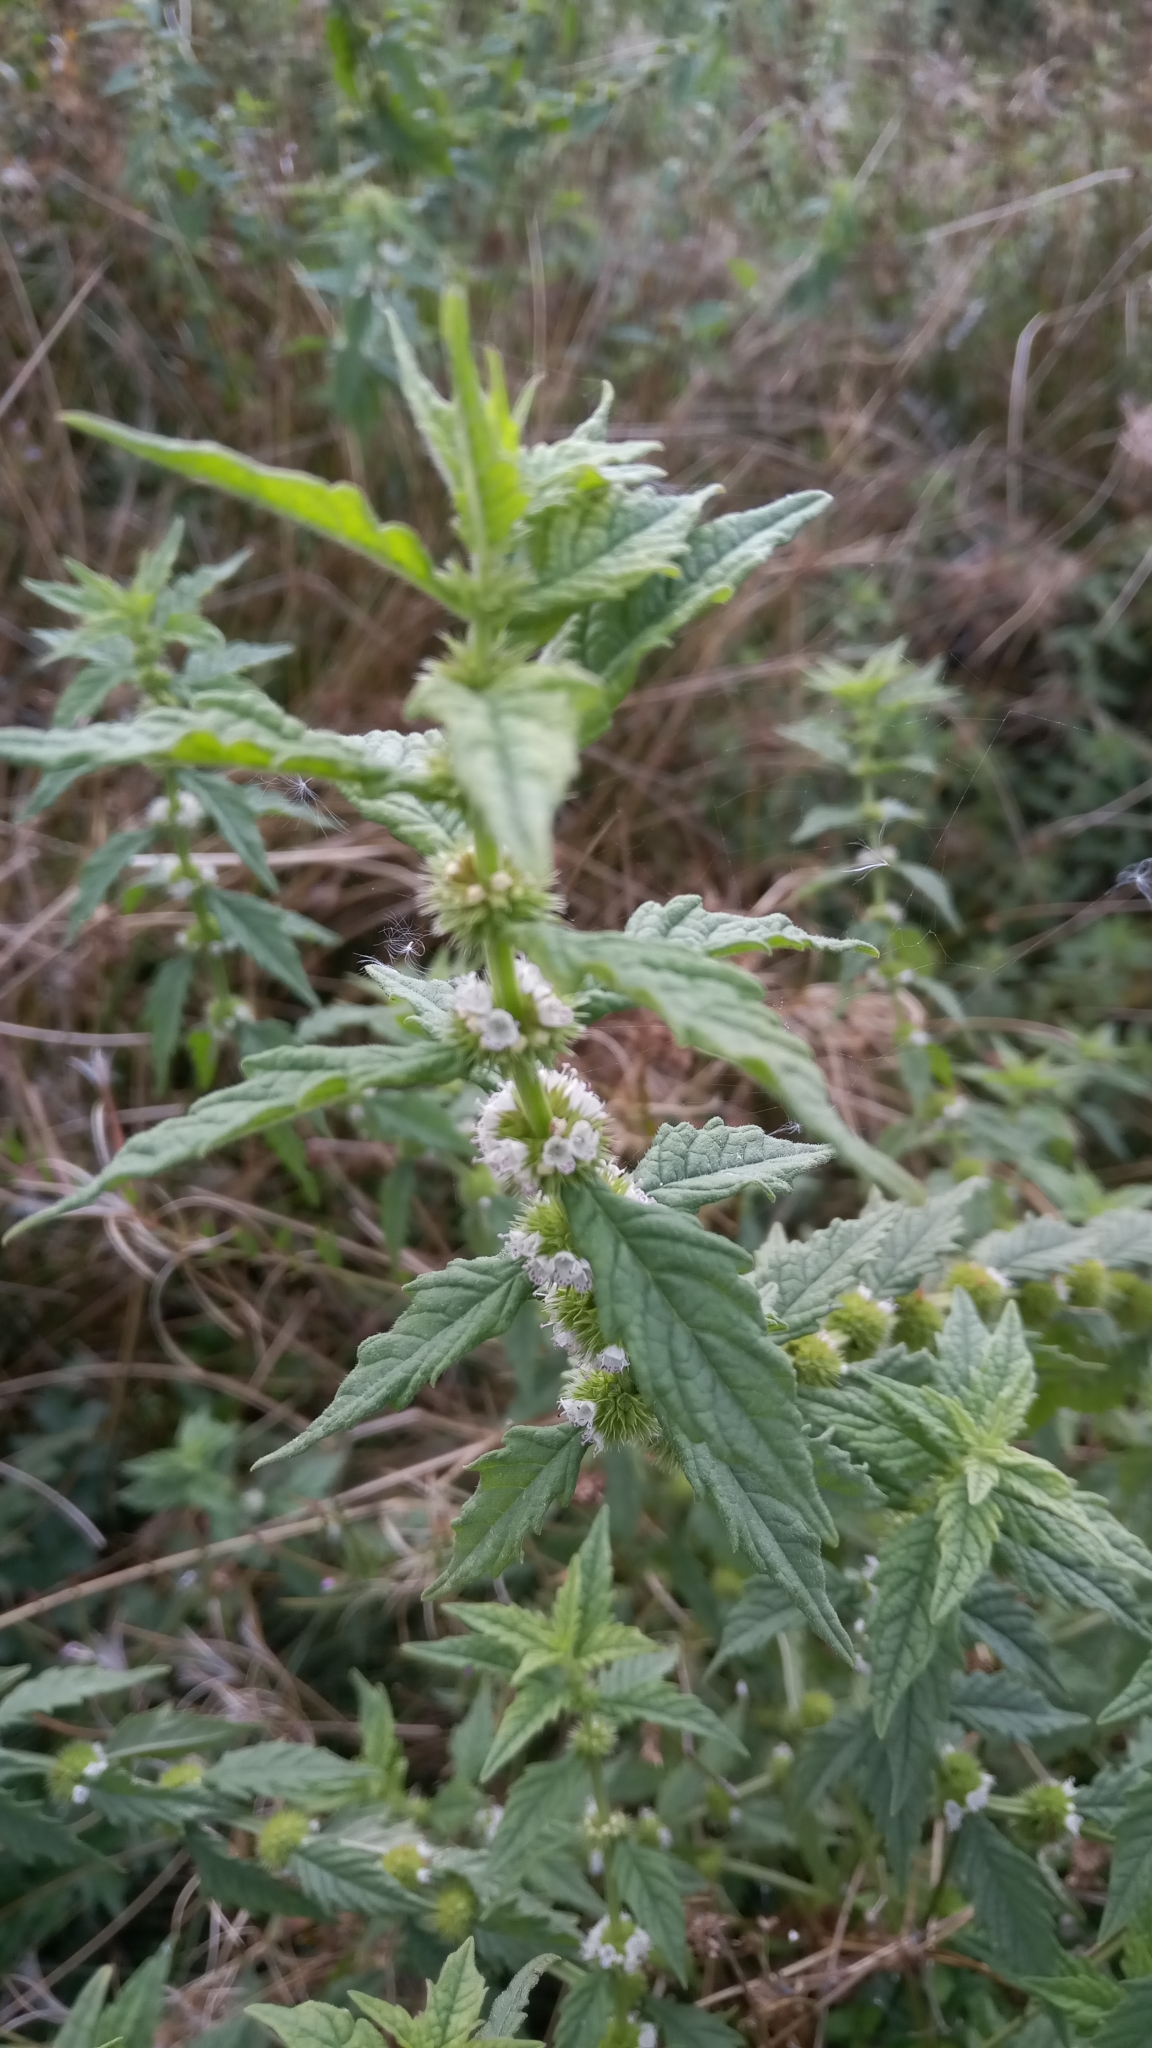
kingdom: Plantae
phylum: Tracheophyta
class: Magnoliopsida
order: Lamiales
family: Lamiaceae
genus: Lycopus
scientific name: Lycopus europaeus
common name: European bugleweed
